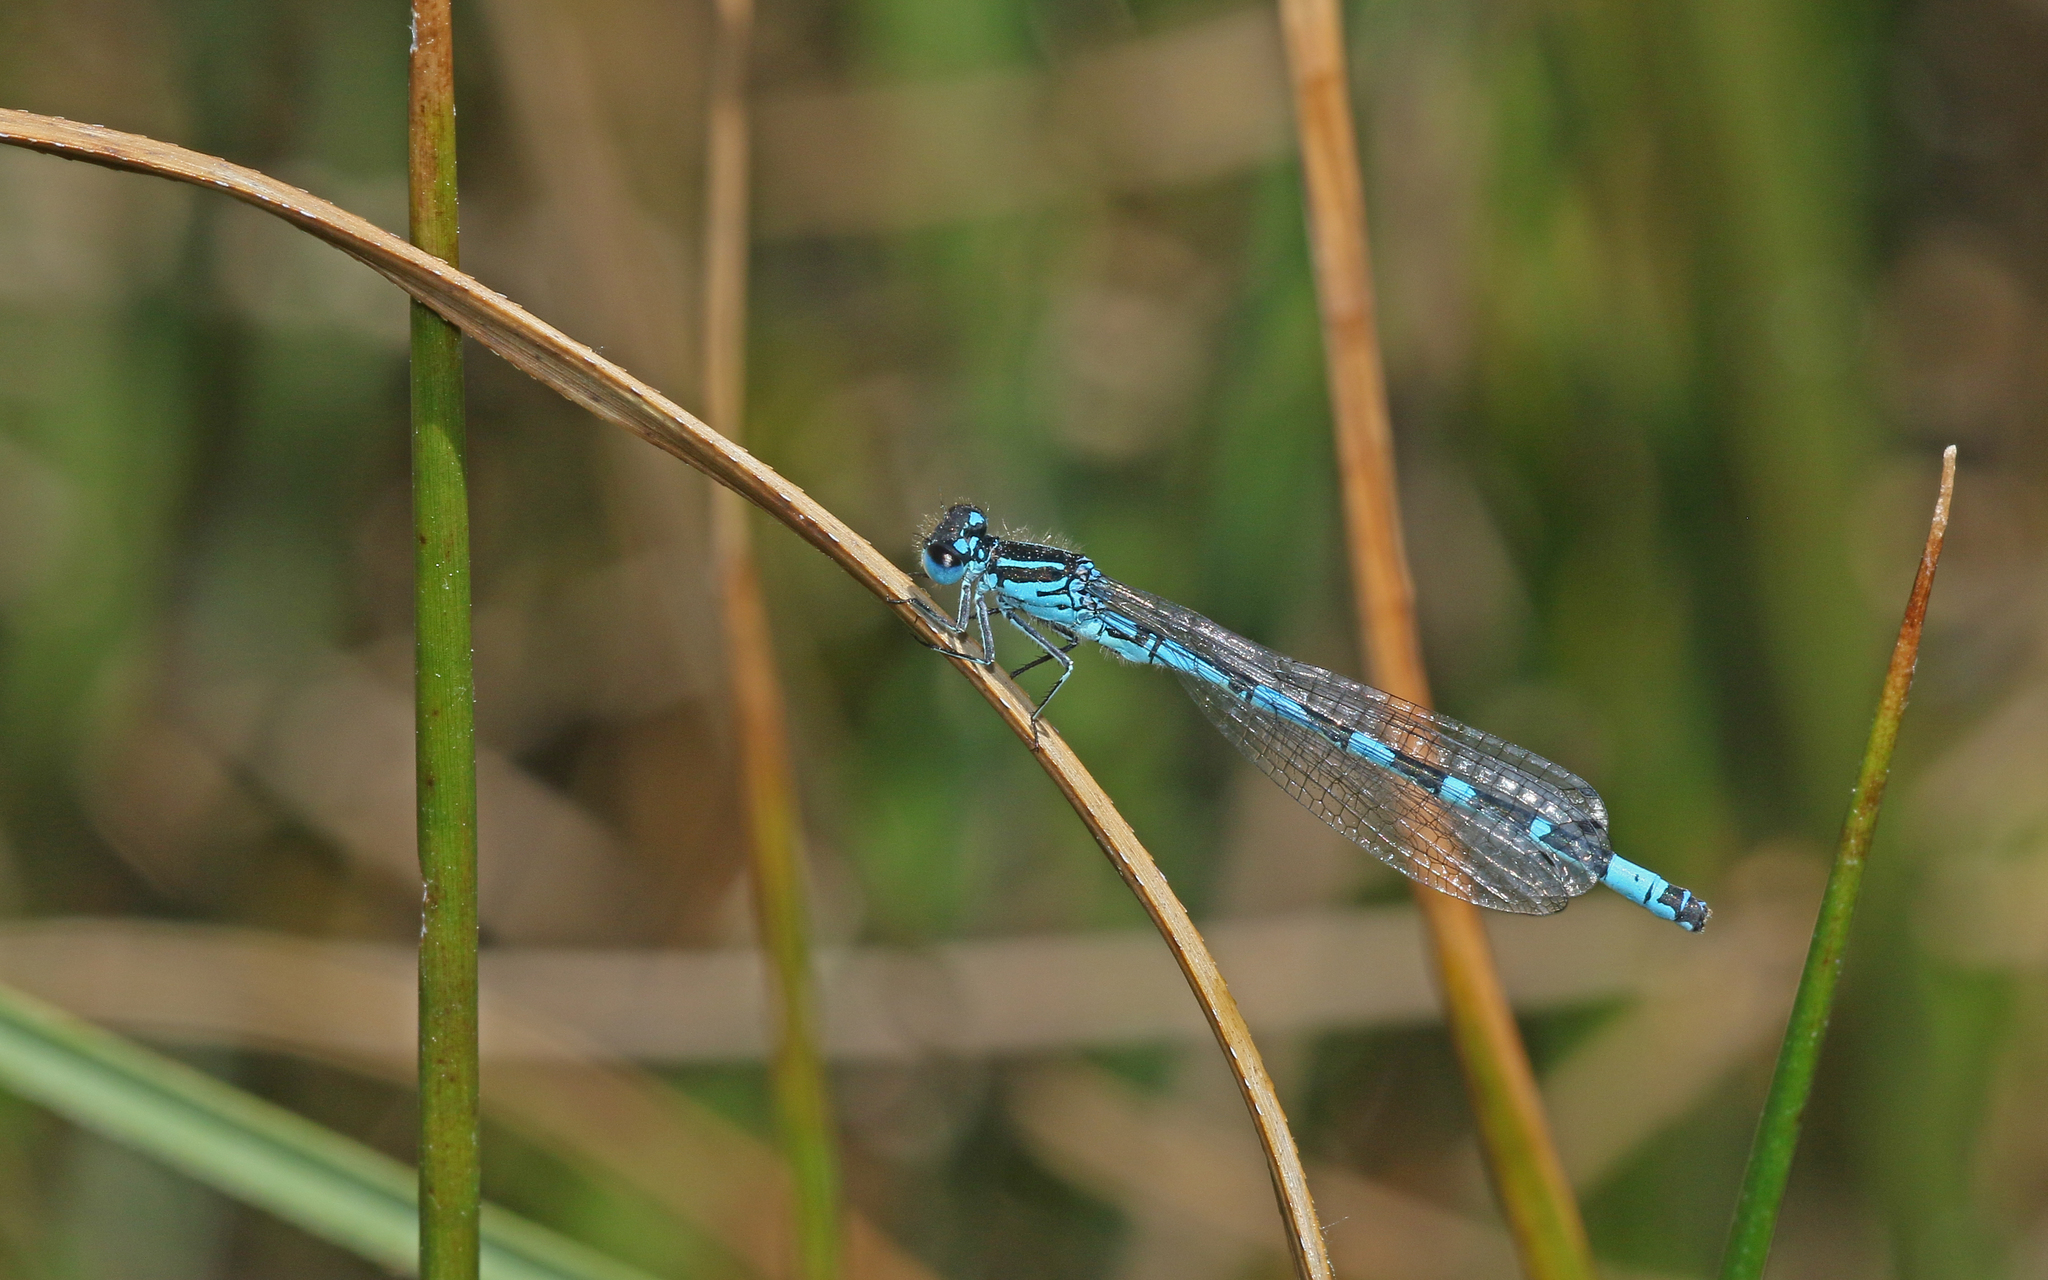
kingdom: Animalia
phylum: Arthropoda
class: Insecta
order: Odonata
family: Coenagrionidae
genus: Coenagrion
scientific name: Coenagrion ornatum
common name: Ornate bluet
